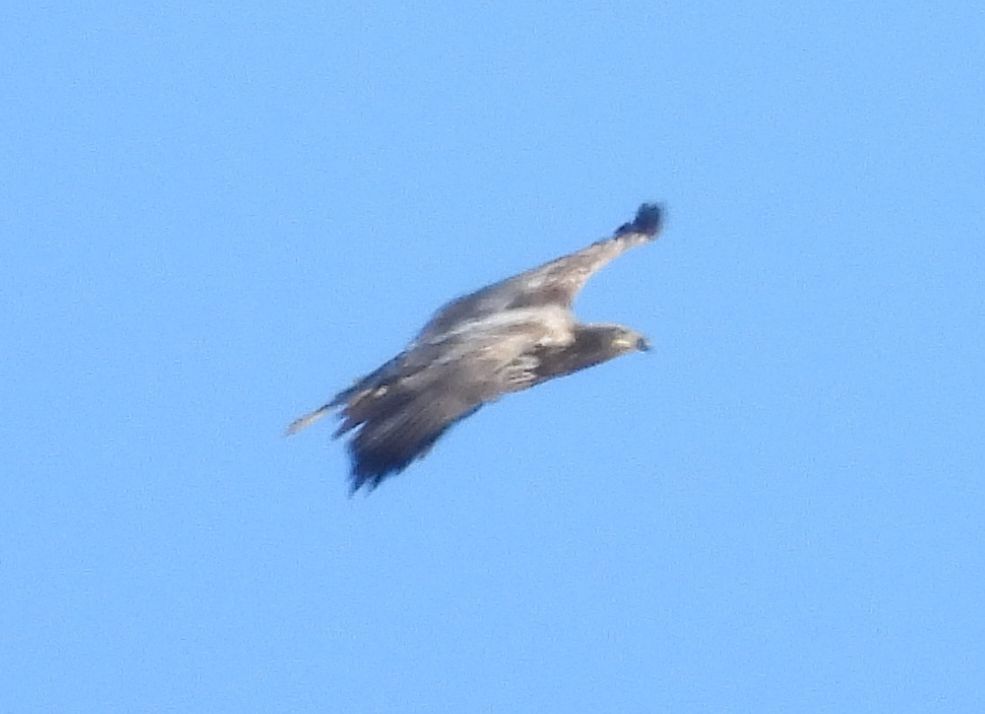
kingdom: Animalia
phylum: Chordata
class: Aves
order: Accipitriformes
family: Accipitridae
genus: Haliaeetus
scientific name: Haliaeetus leucocephalus
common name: Bald eagle
